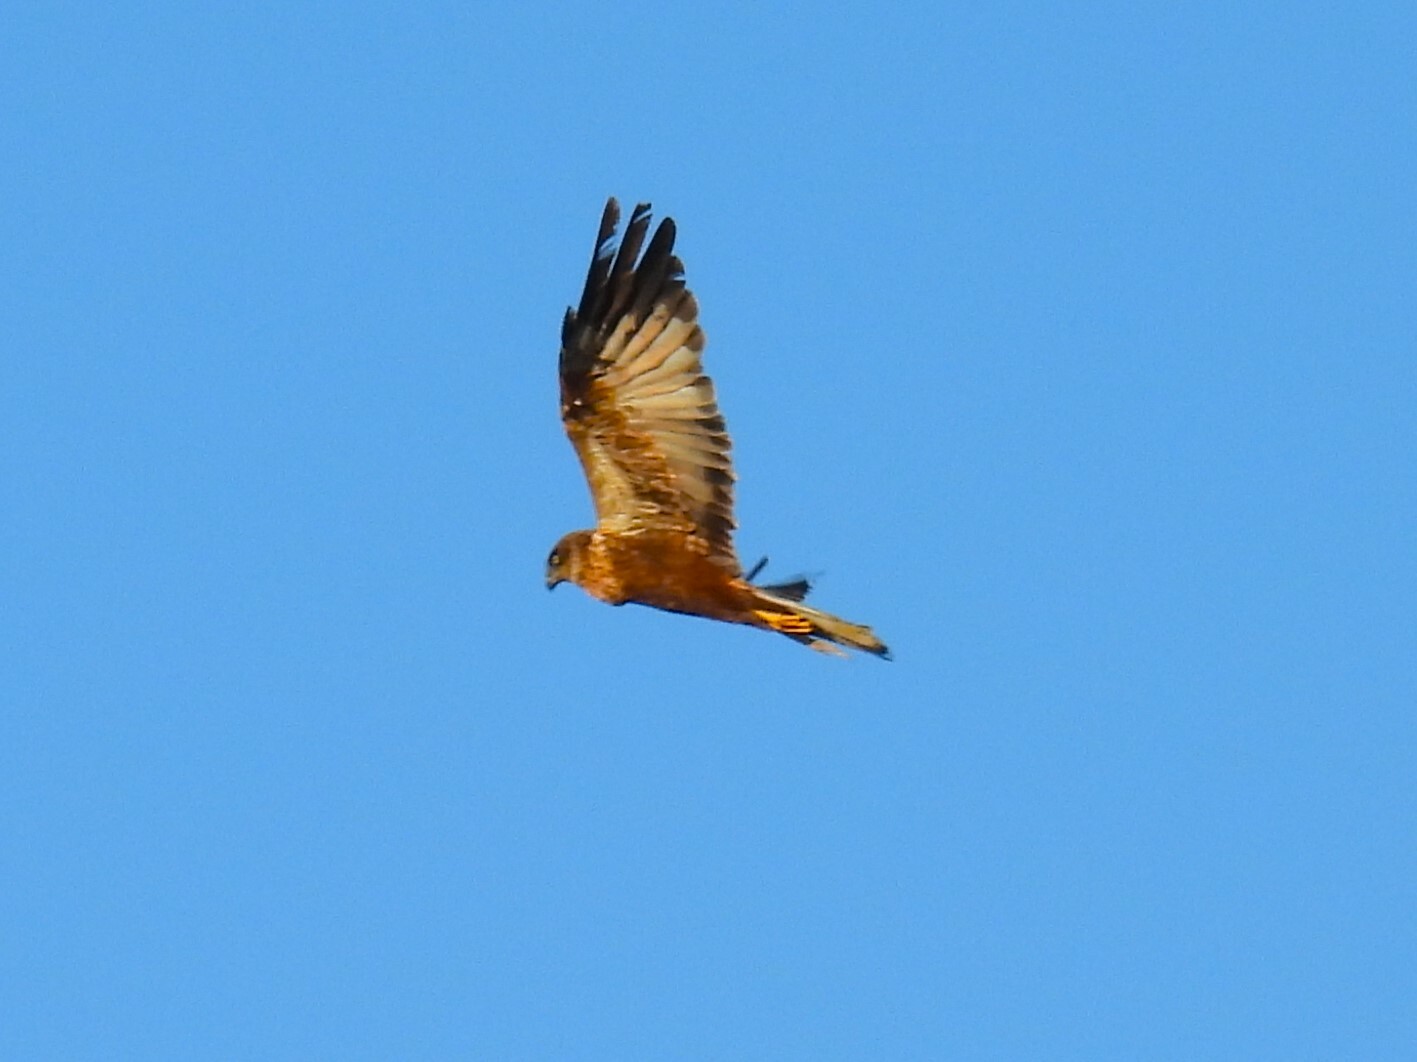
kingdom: Animalia
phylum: Chordata
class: Aves
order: Accipitriformes
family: Accipitridae
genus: Circus
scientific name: Circus aeruginosus
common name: Western marsh harrier
